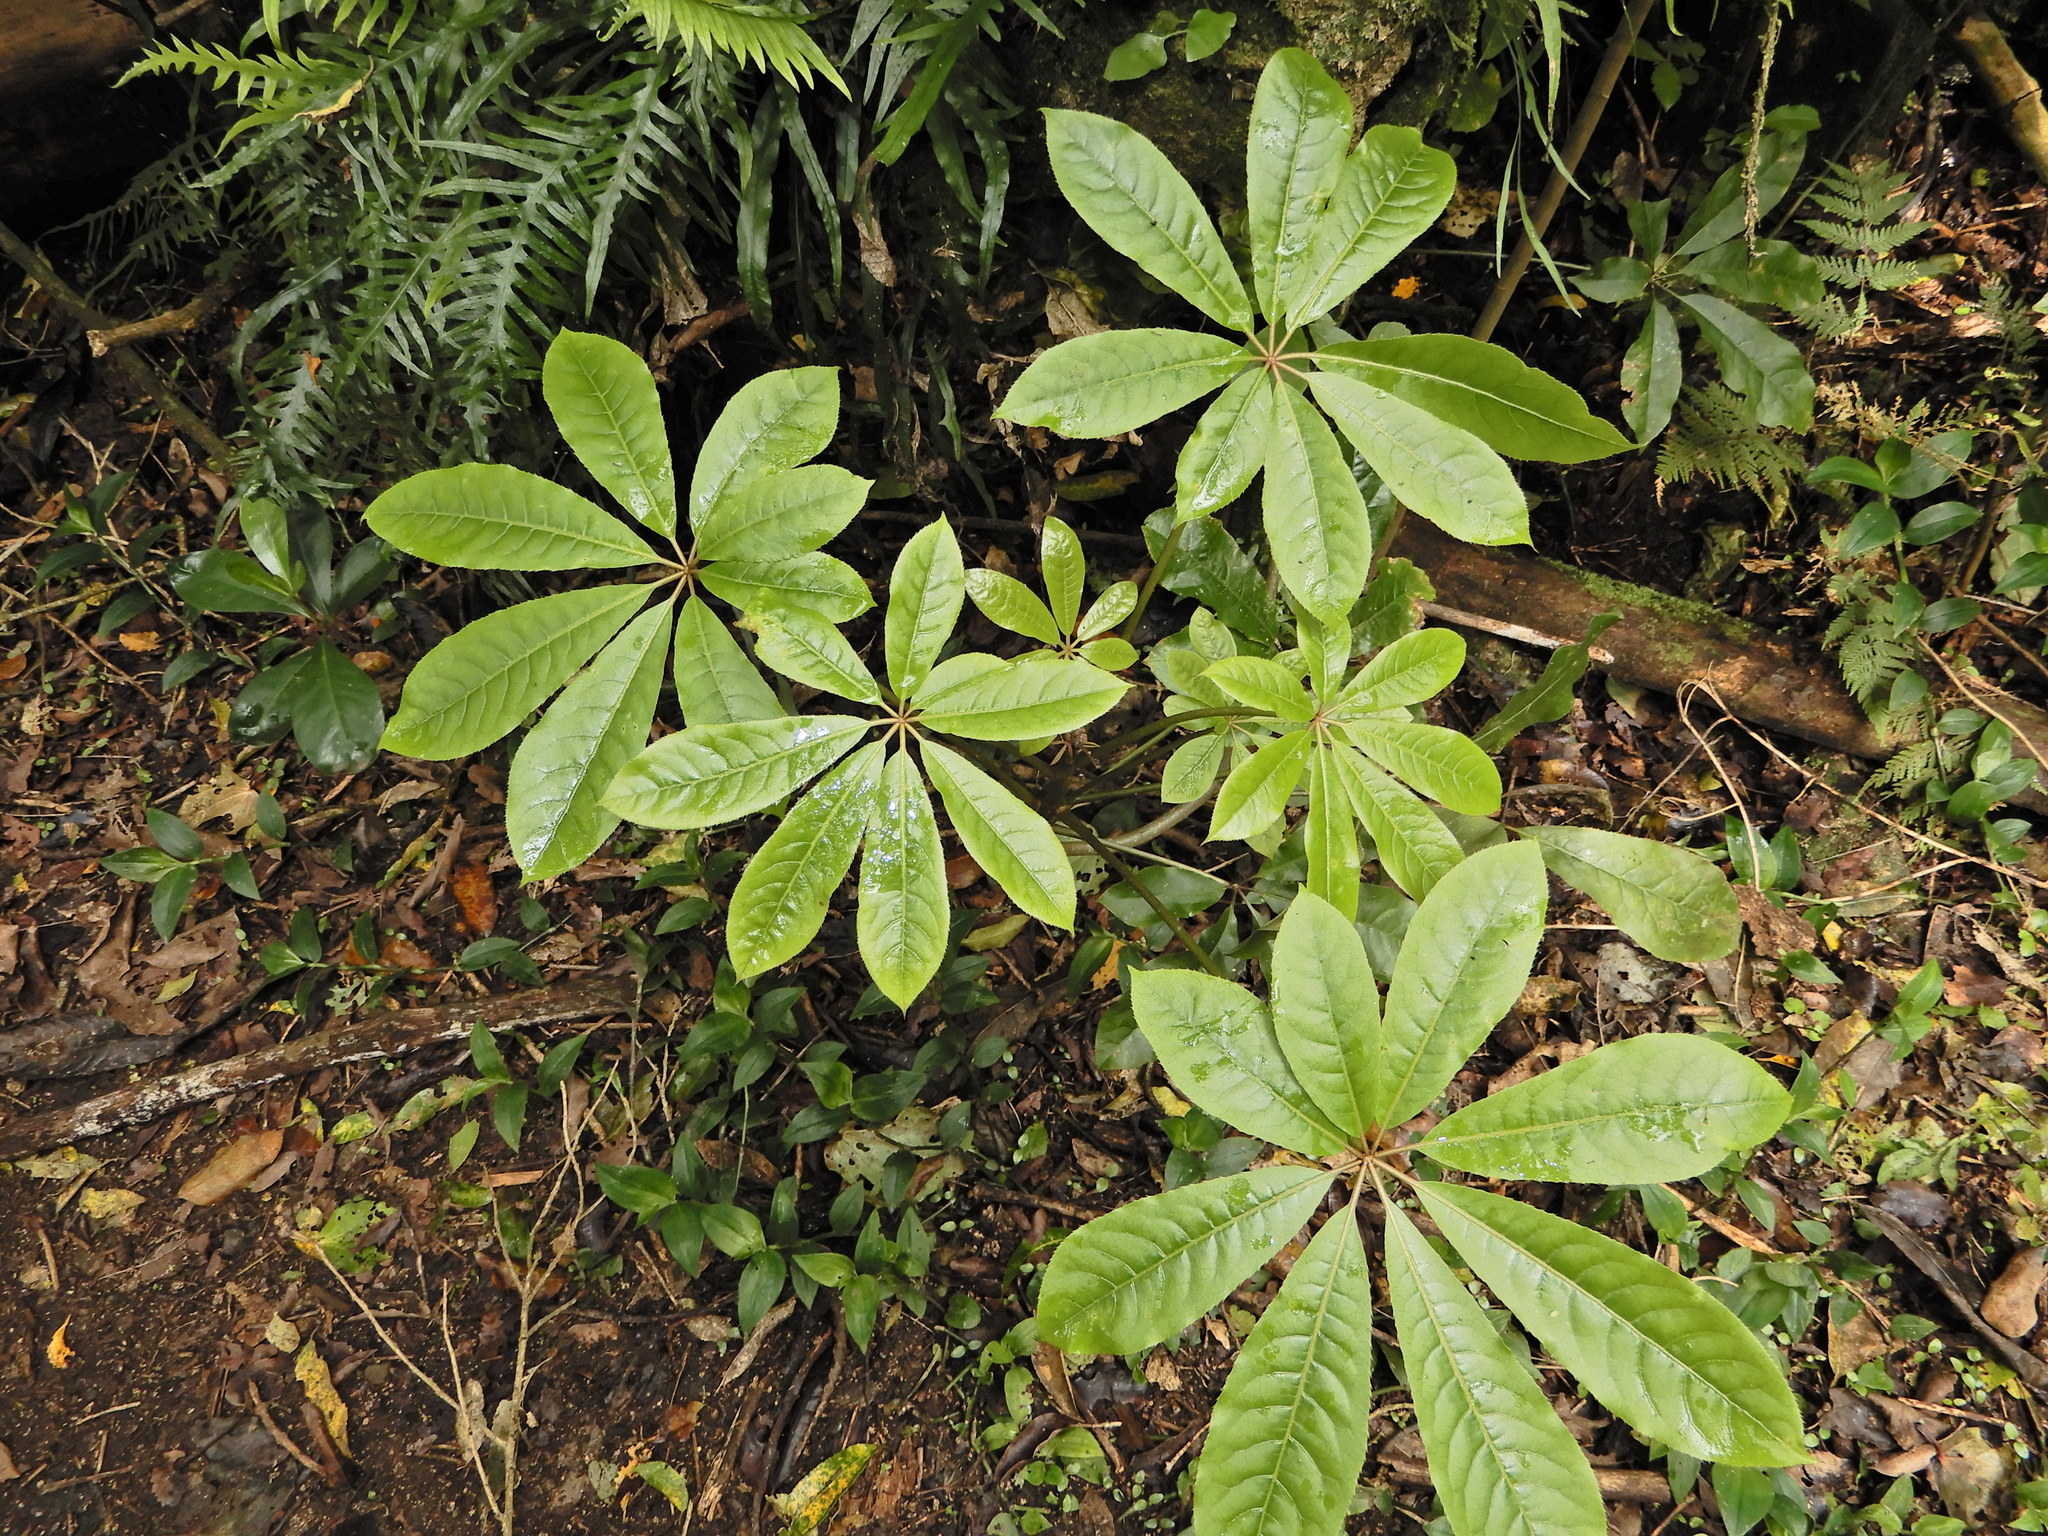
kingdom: Plantae
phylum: Tracheophyta
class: Magnoliopsida
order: Apiales
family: Araliaceae
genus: Schefflera
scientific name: Schefflera digitata
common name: Pate
